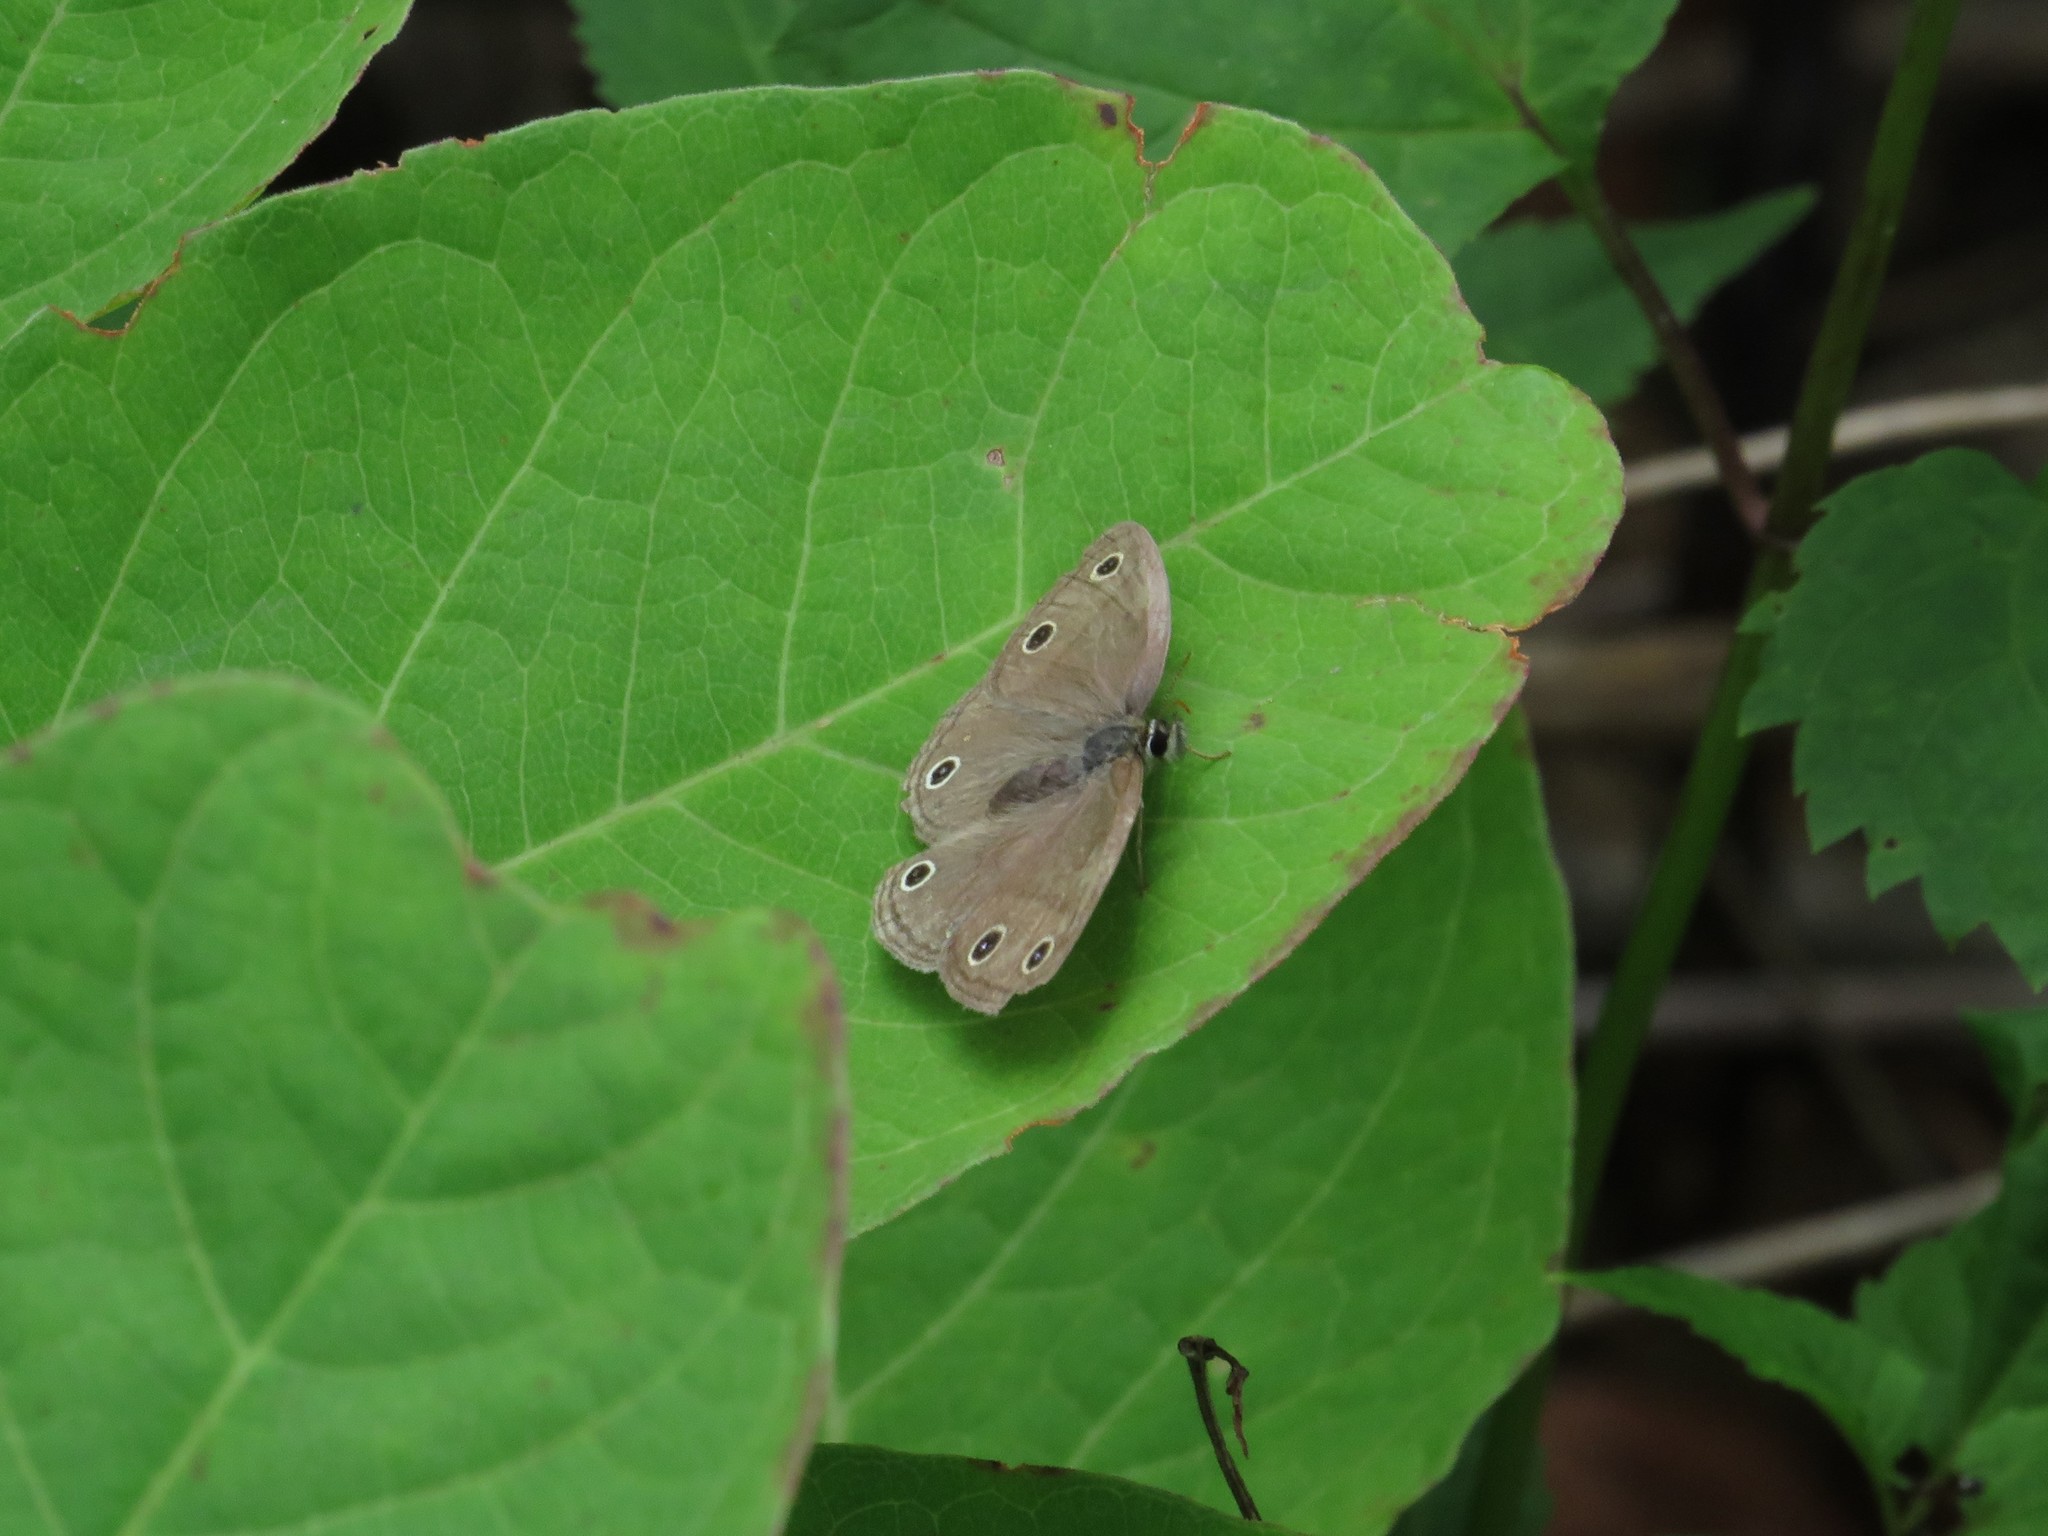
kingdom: Animalia
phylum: Arthropoda
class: Insecta
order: Lepidoptera
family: Nymphalidae
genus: Euptychia
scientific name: Euptychia cymela
